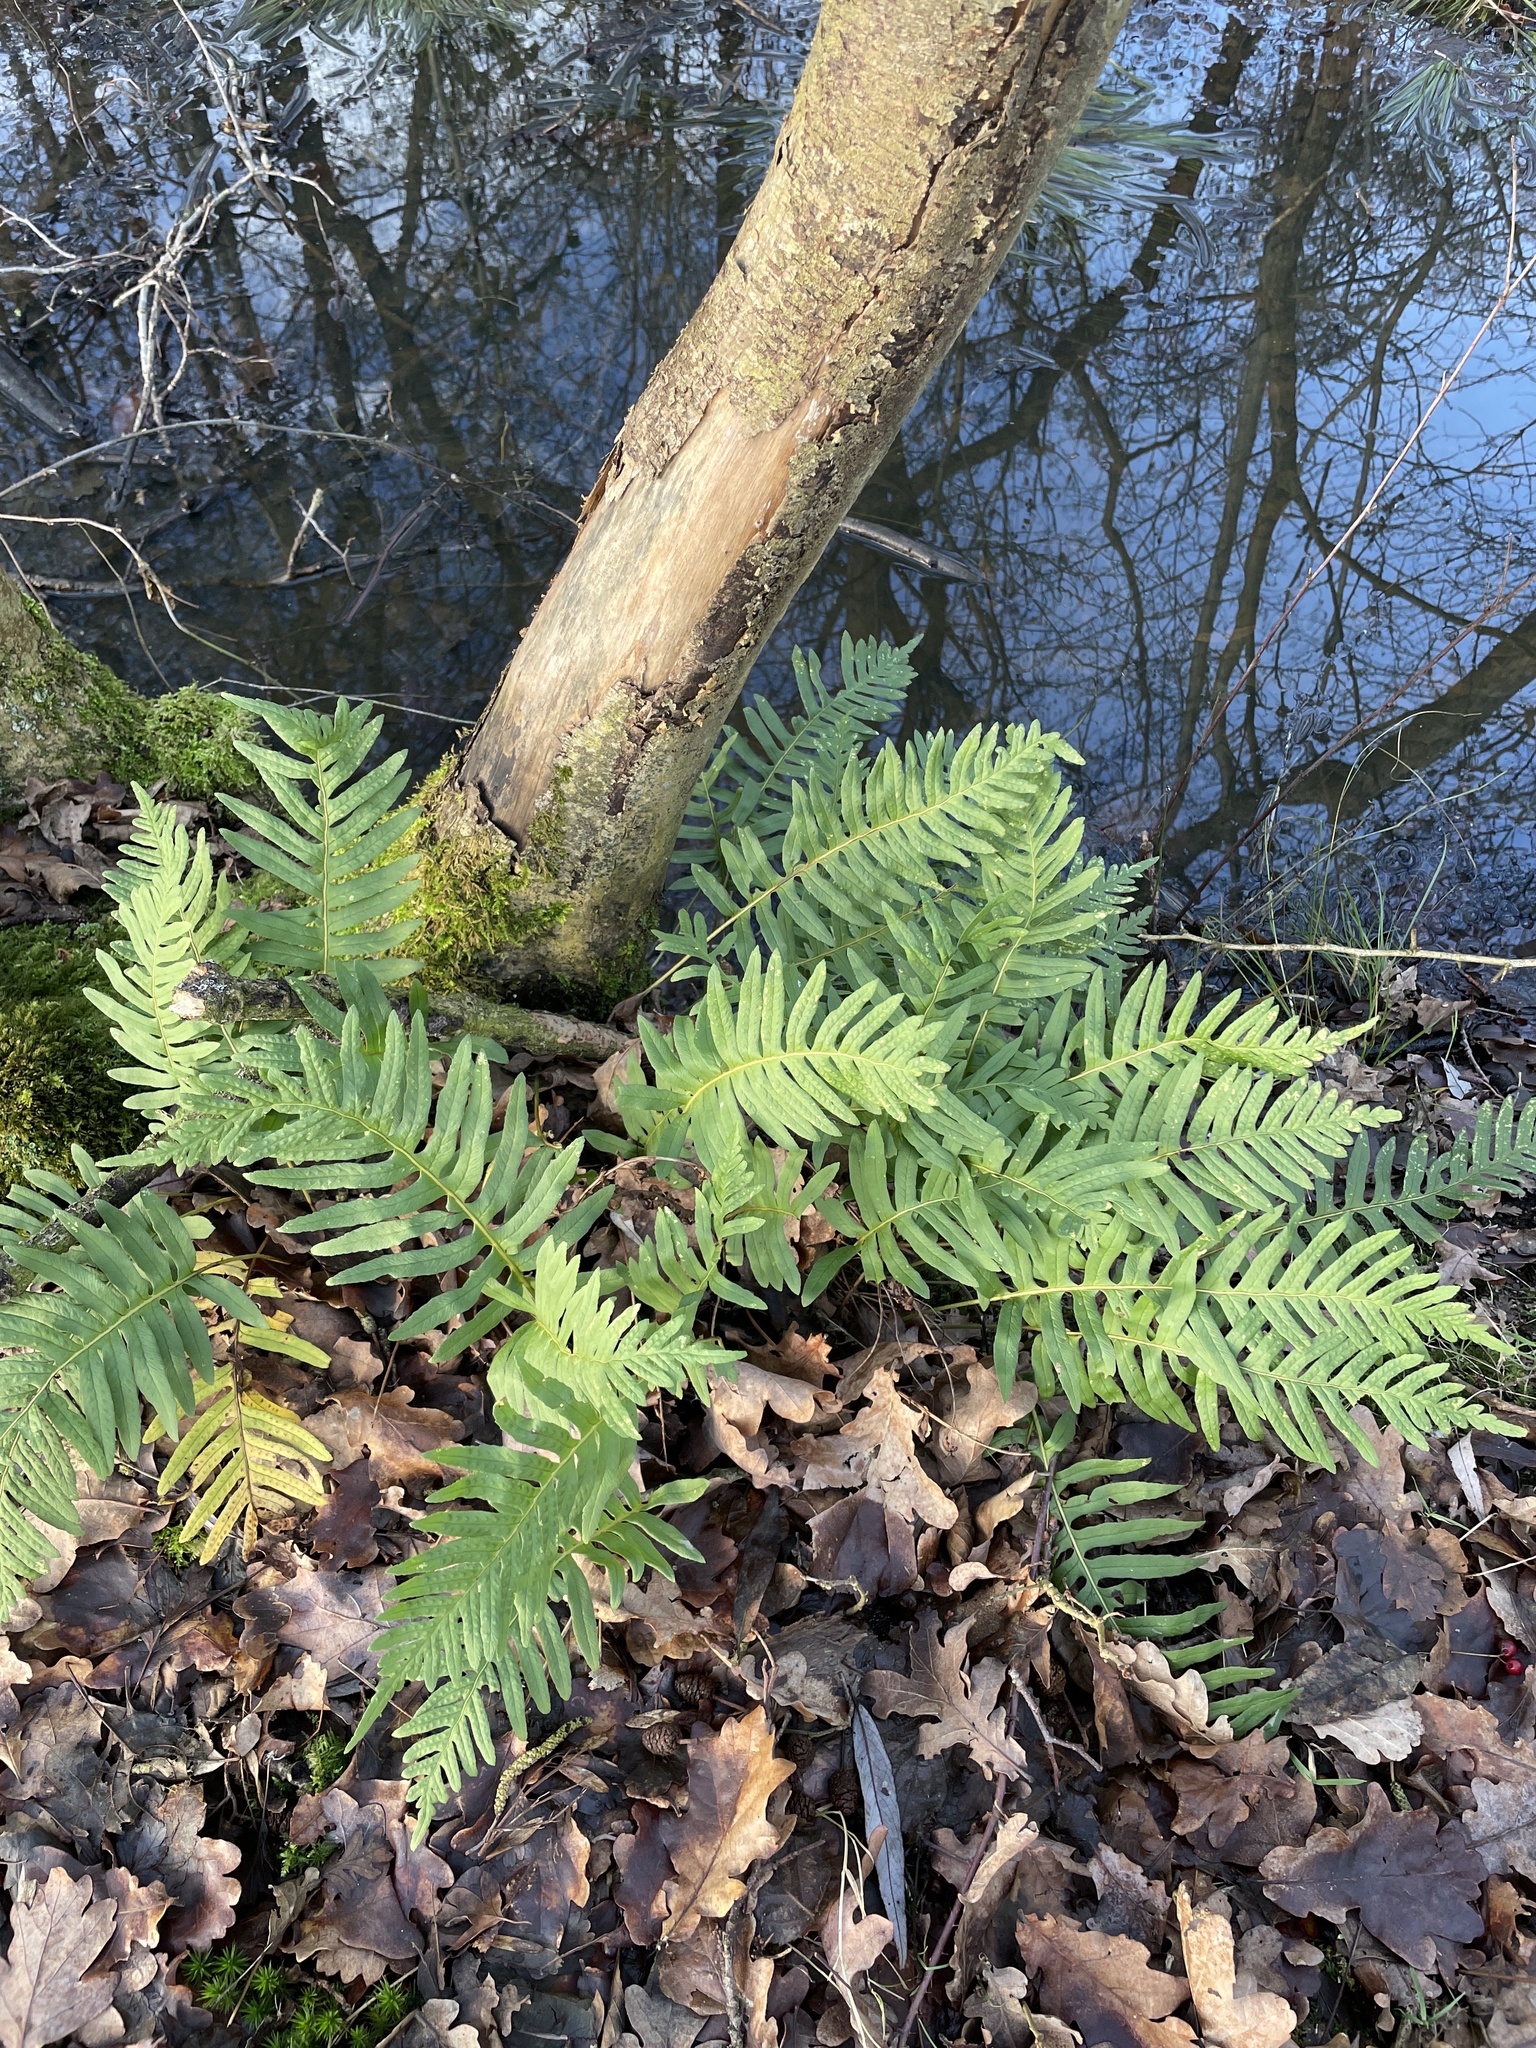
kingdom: Plantae
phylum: Tracheophyta
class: Polypodiopsida
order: Polypodiales
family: Polypodiaceae
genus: Polypodium
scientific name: Polypodium interjectum
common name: Intermediate polypody
